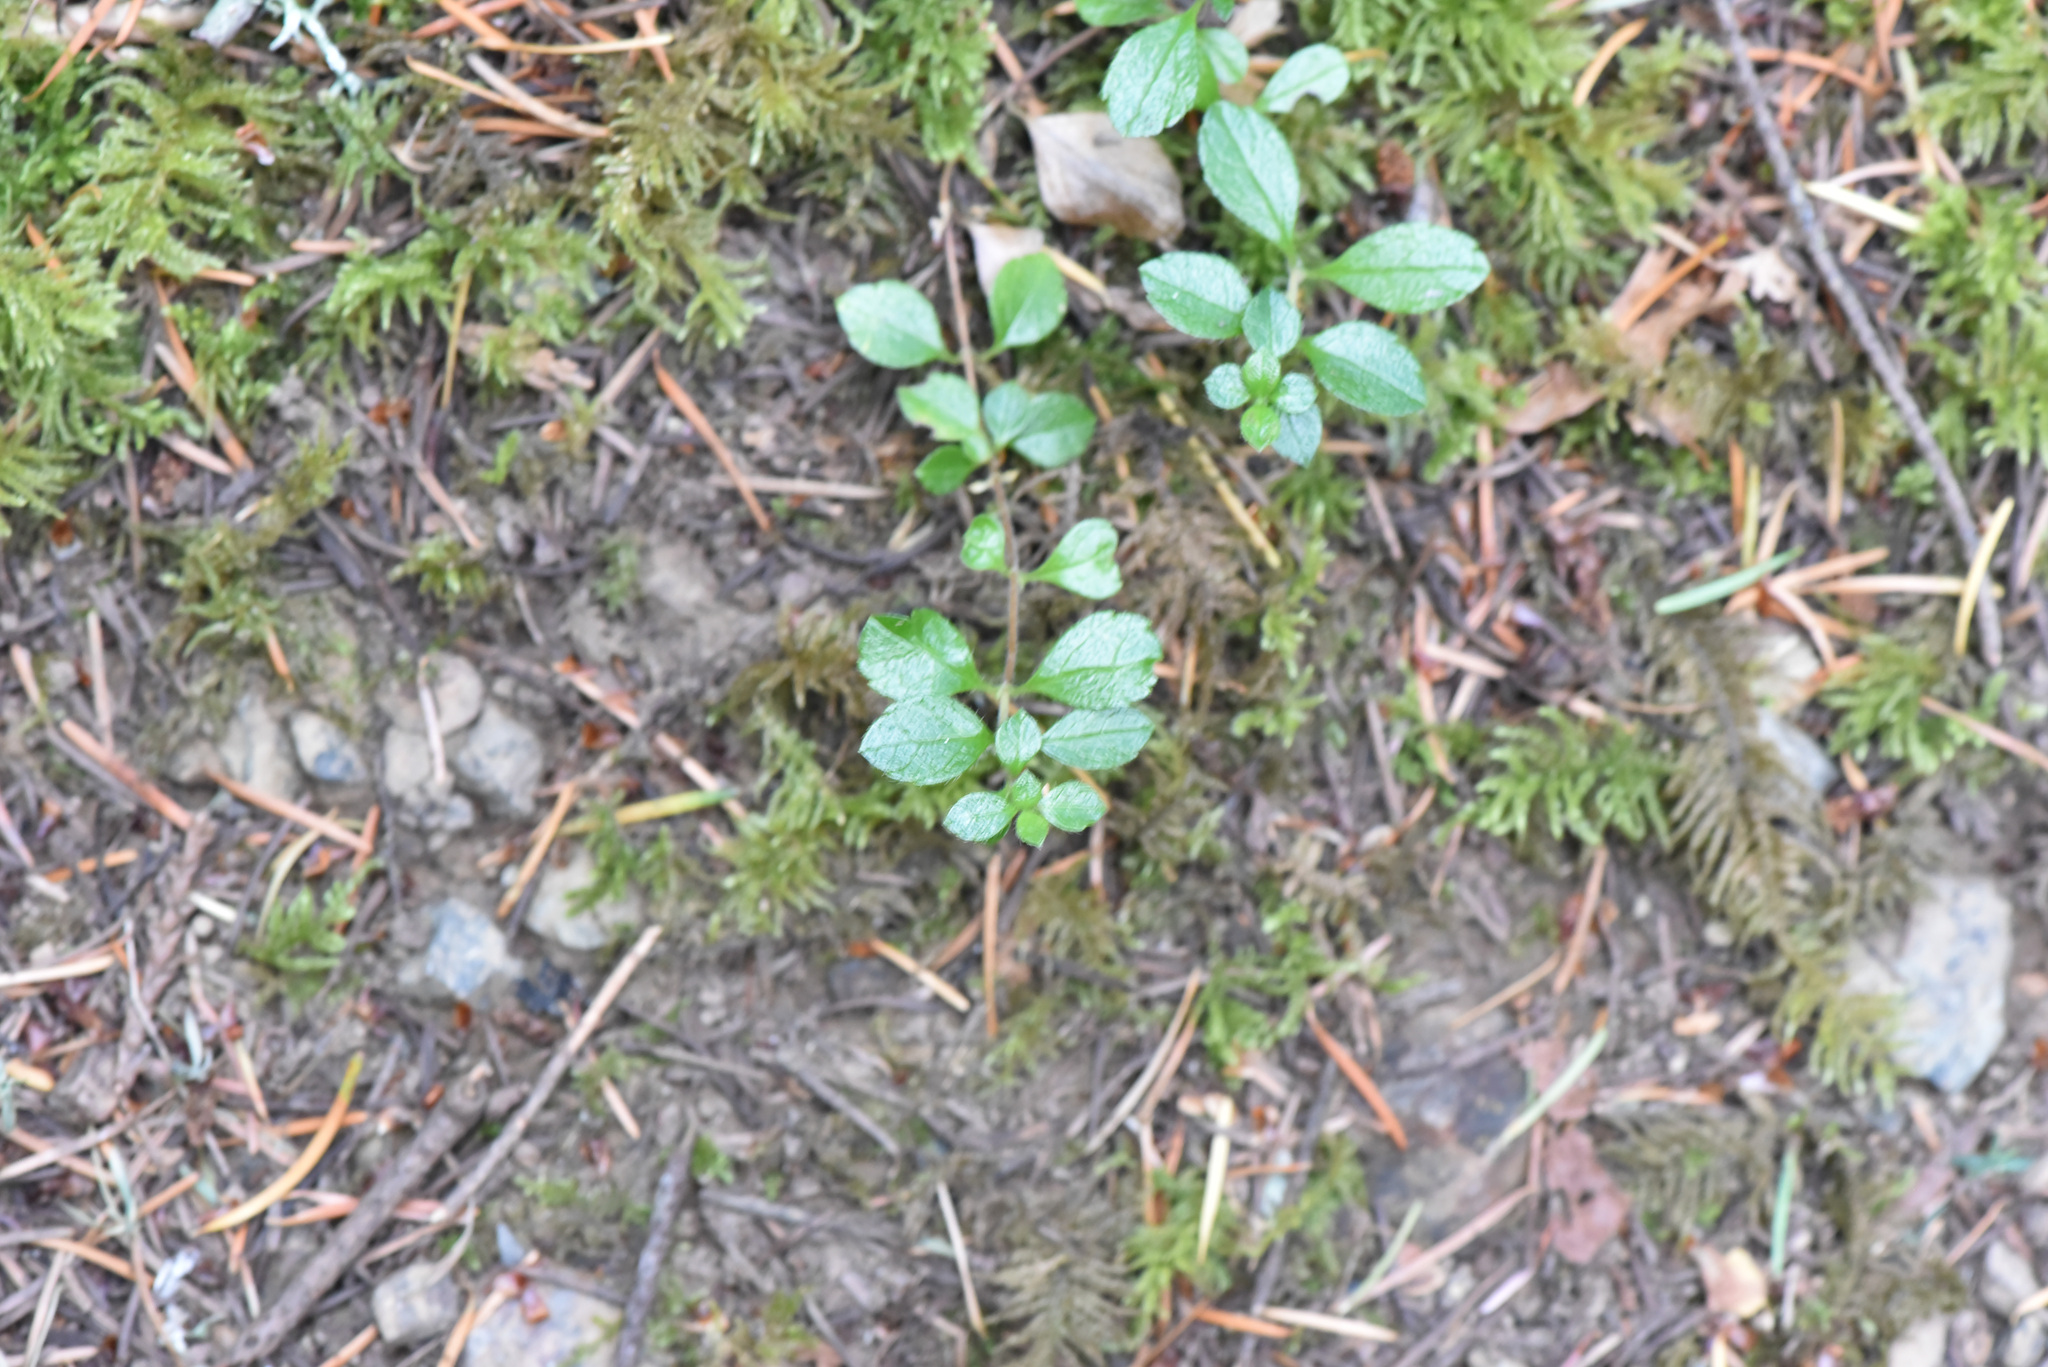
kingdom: Plantae
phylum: Tracheophyta
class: Magnoliopsida
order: Dipsacales
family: Caprifoliaceae
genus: Linnaea
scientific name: Linnaea borealis
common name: Twinflower
